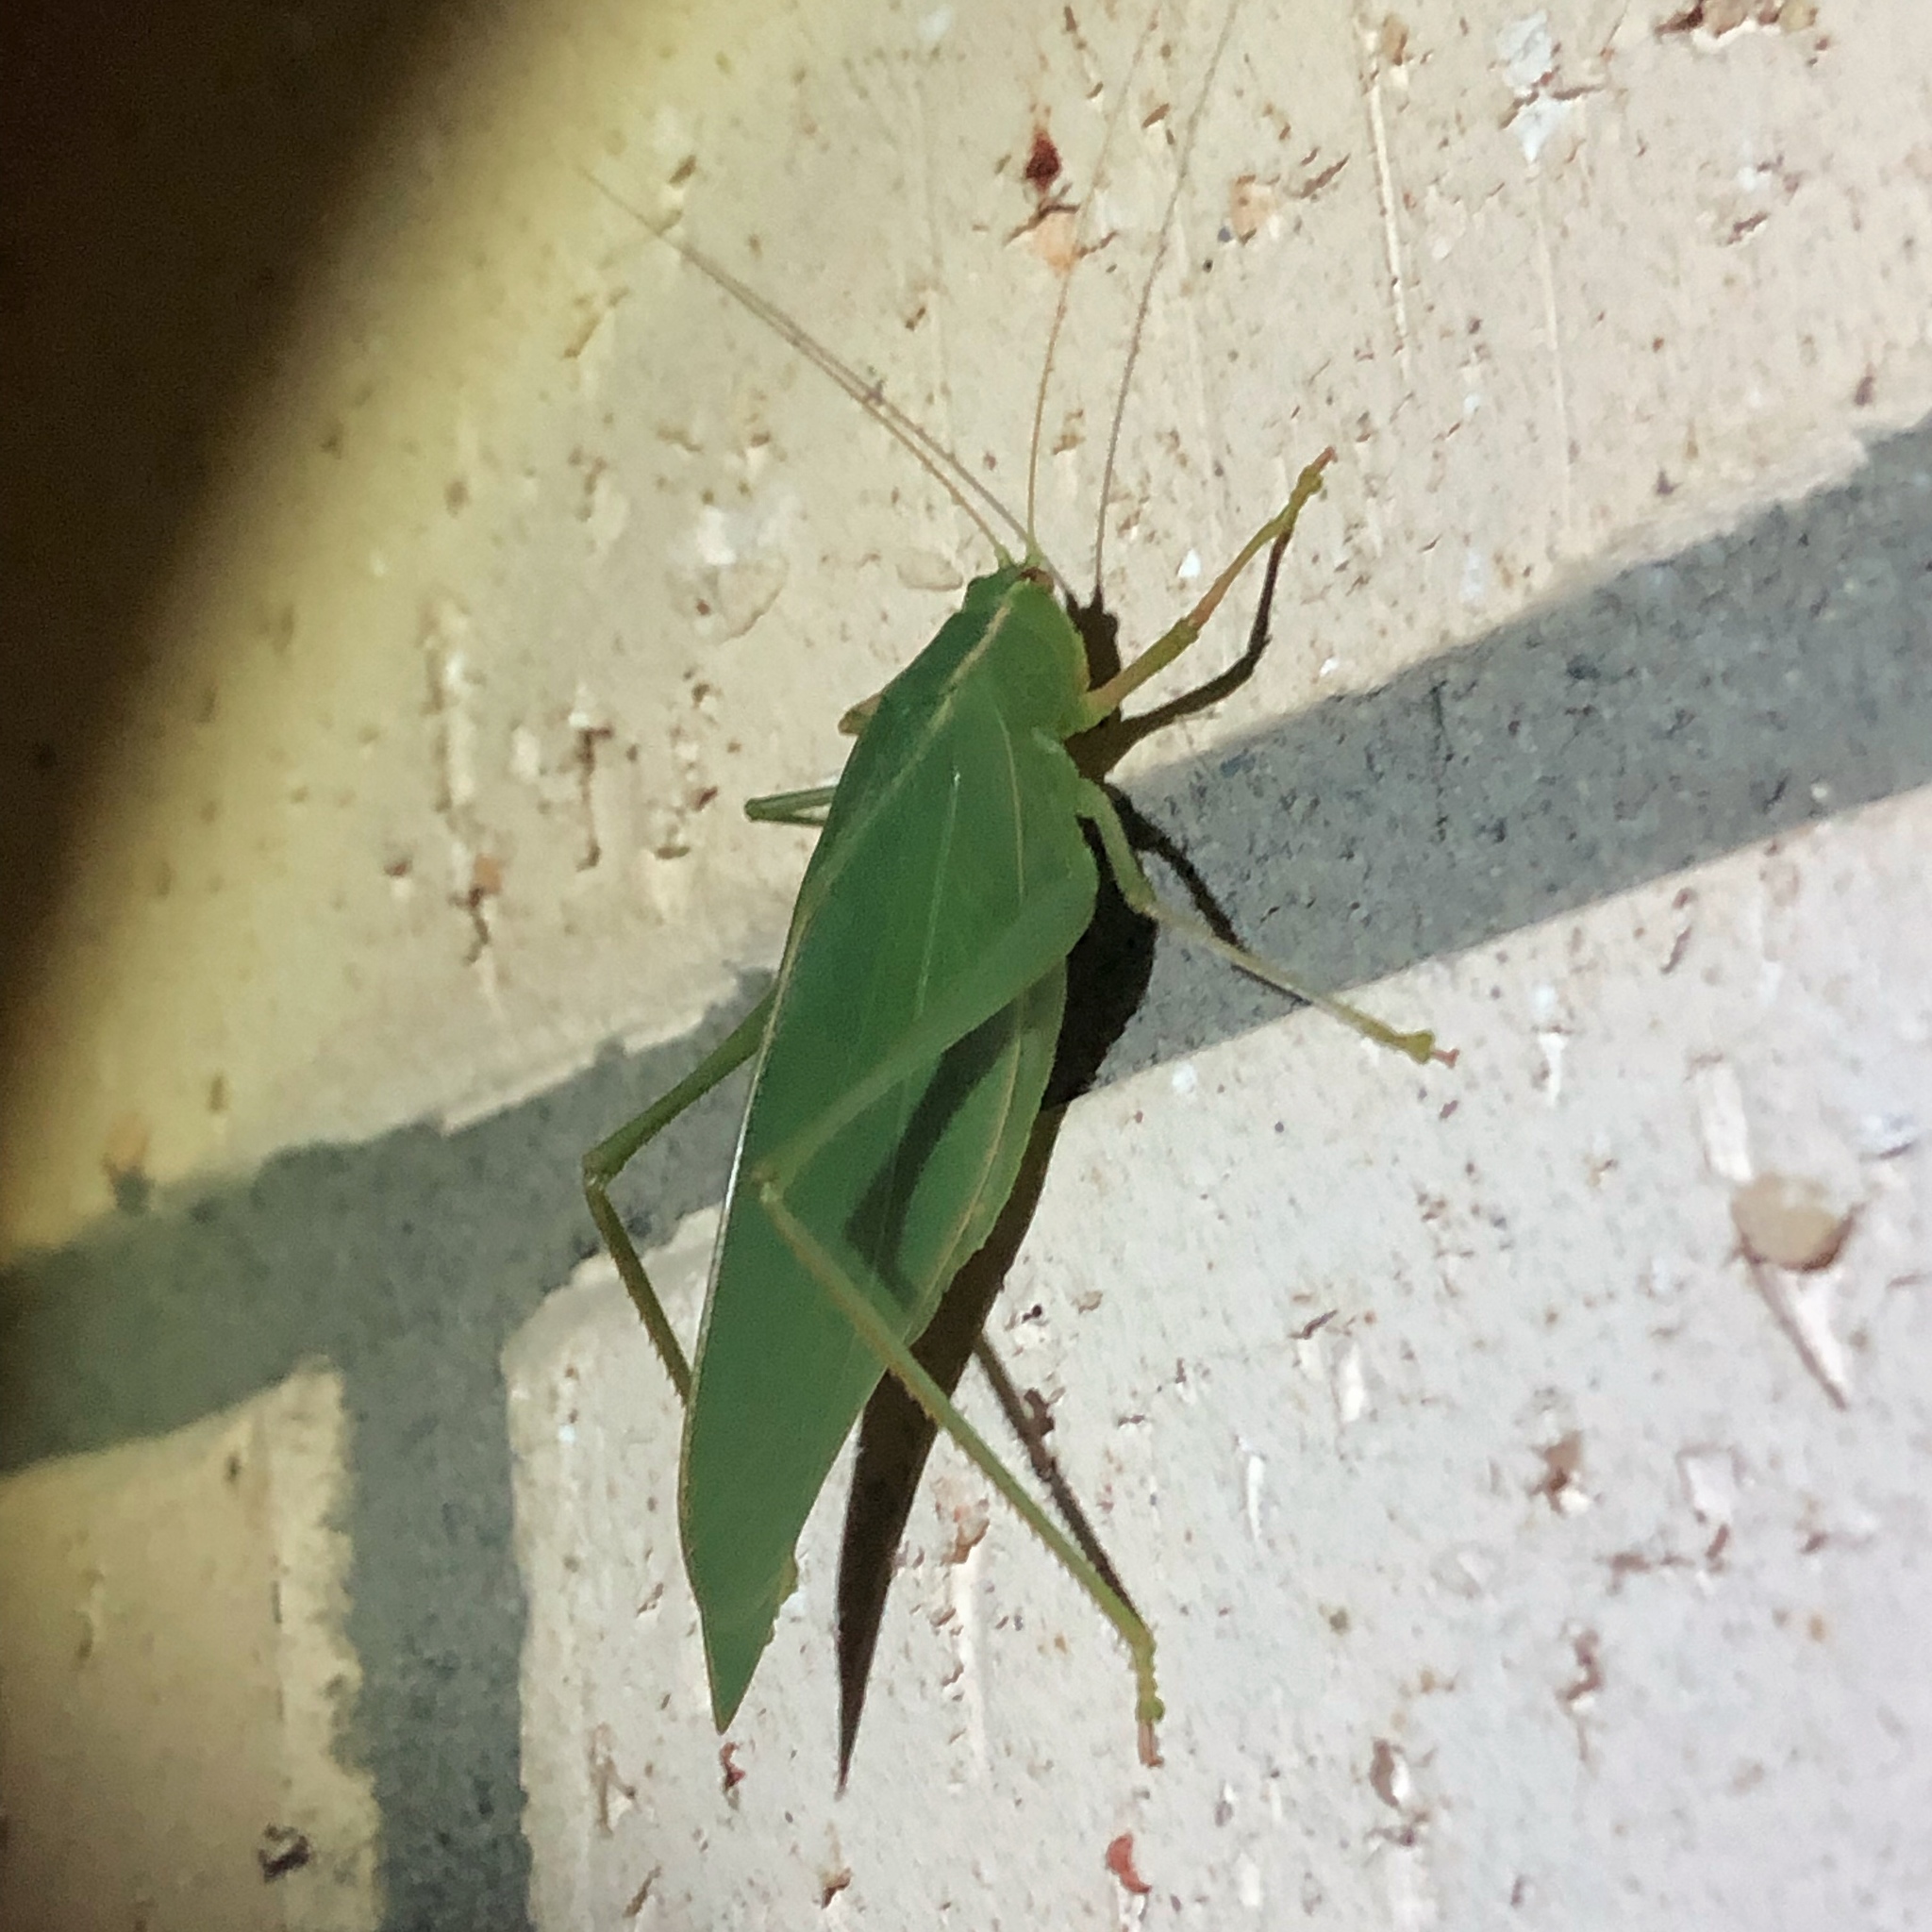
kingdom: Animalia
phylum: Arthropoda
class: Insecta
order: Orthoptera
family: Tettigoniidae
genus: Caedicia
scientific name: Caedicia simplex
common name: Common garden katydid
